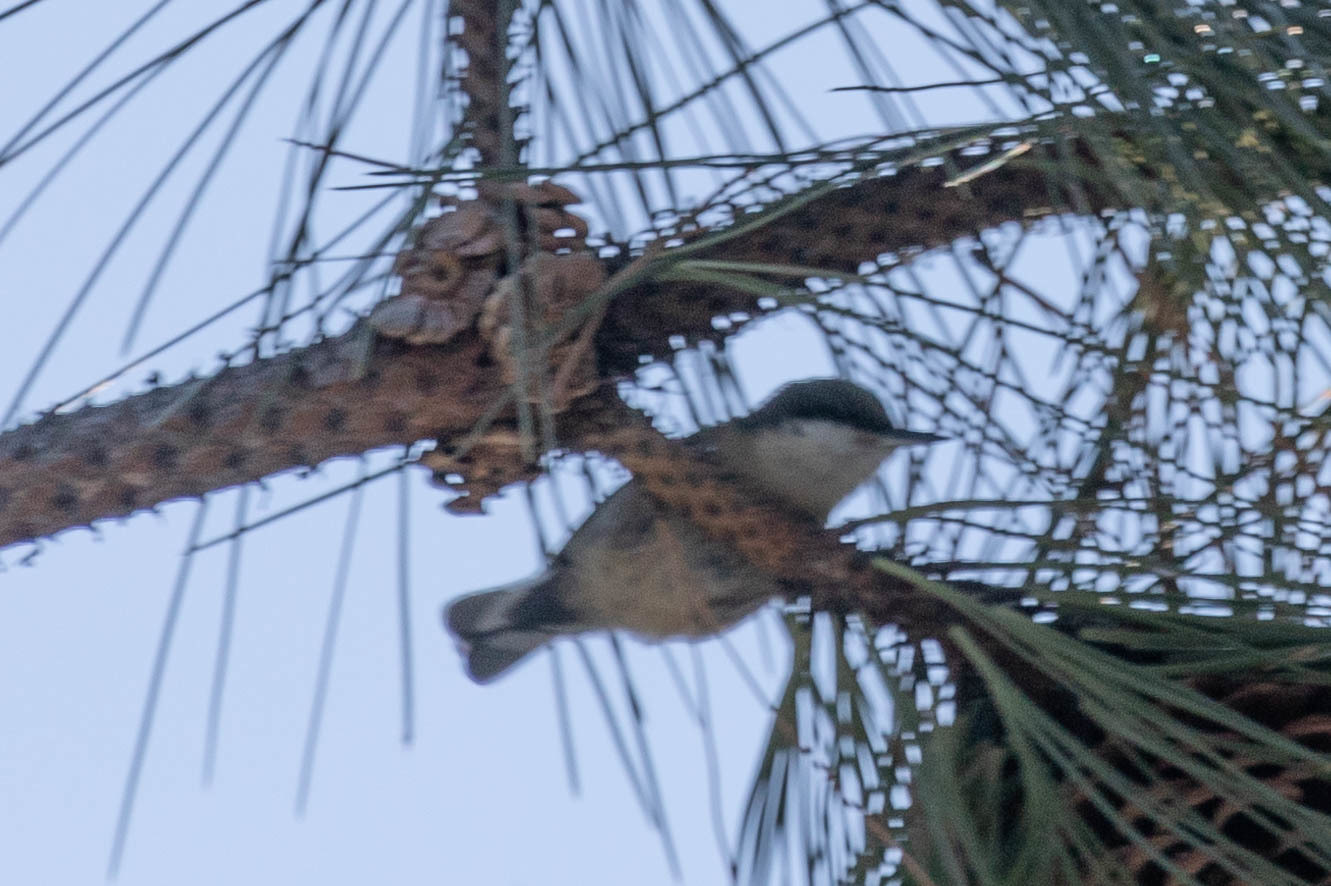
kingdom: Animalia
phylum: Chordata
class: Aves
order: Passeriformes
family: Sittidae
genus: Sitta
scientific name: Sitta pygmaea
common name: Pygmy nuthatch
